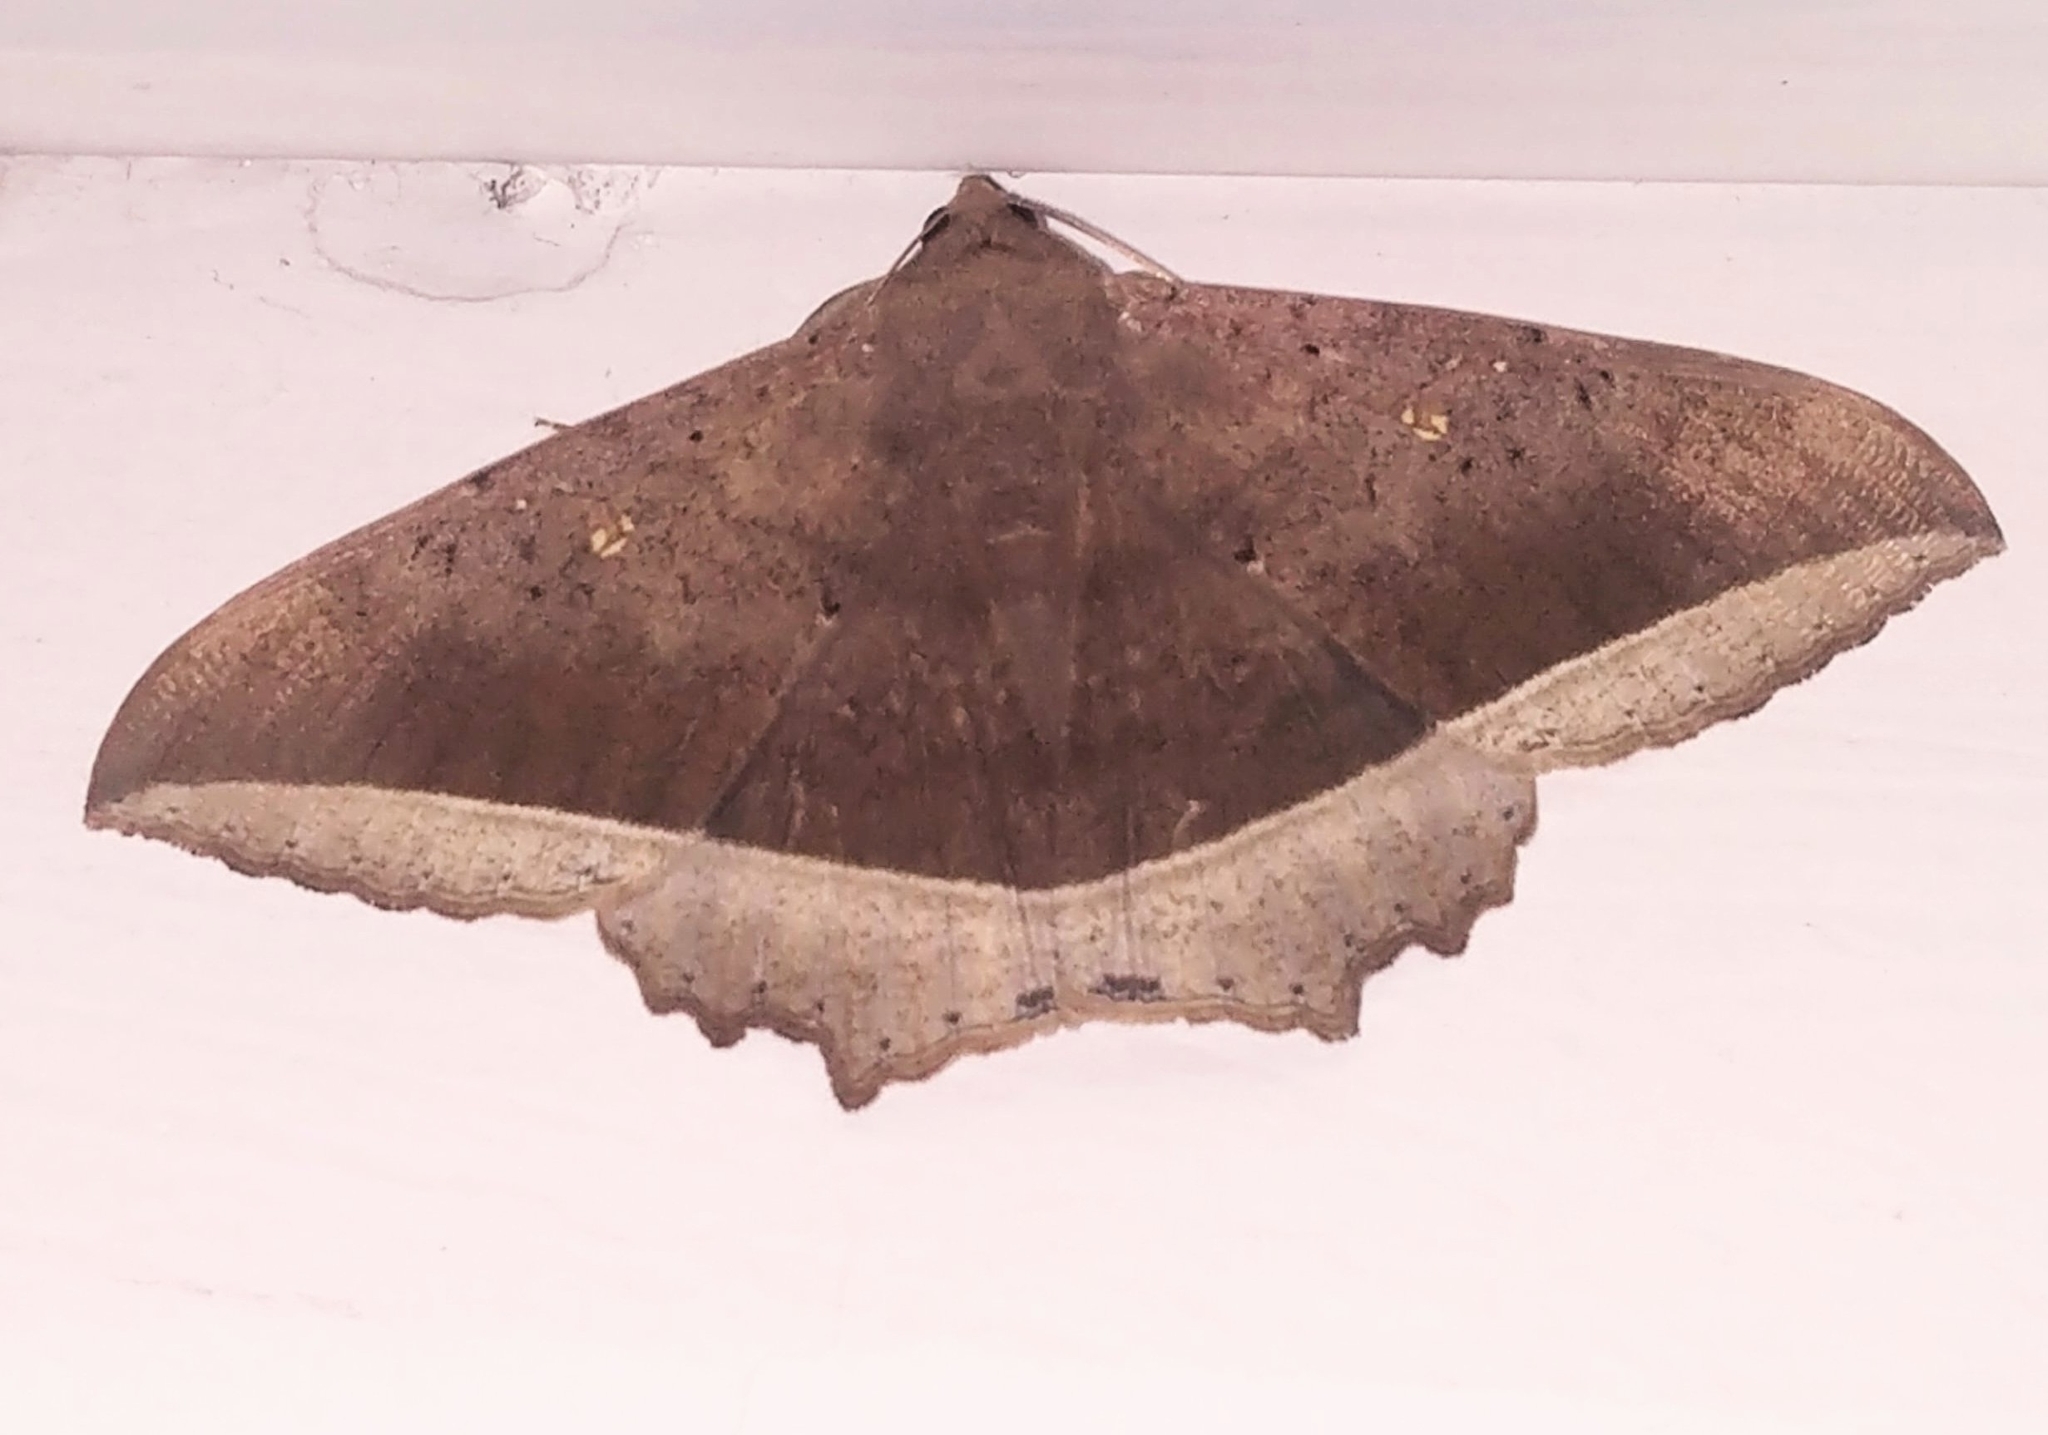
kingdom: Animalia
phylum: Arthropoda
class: Insecta
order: Lepidoptera
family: Erebidae
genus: Hulodes
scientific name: Hulodes caranea
